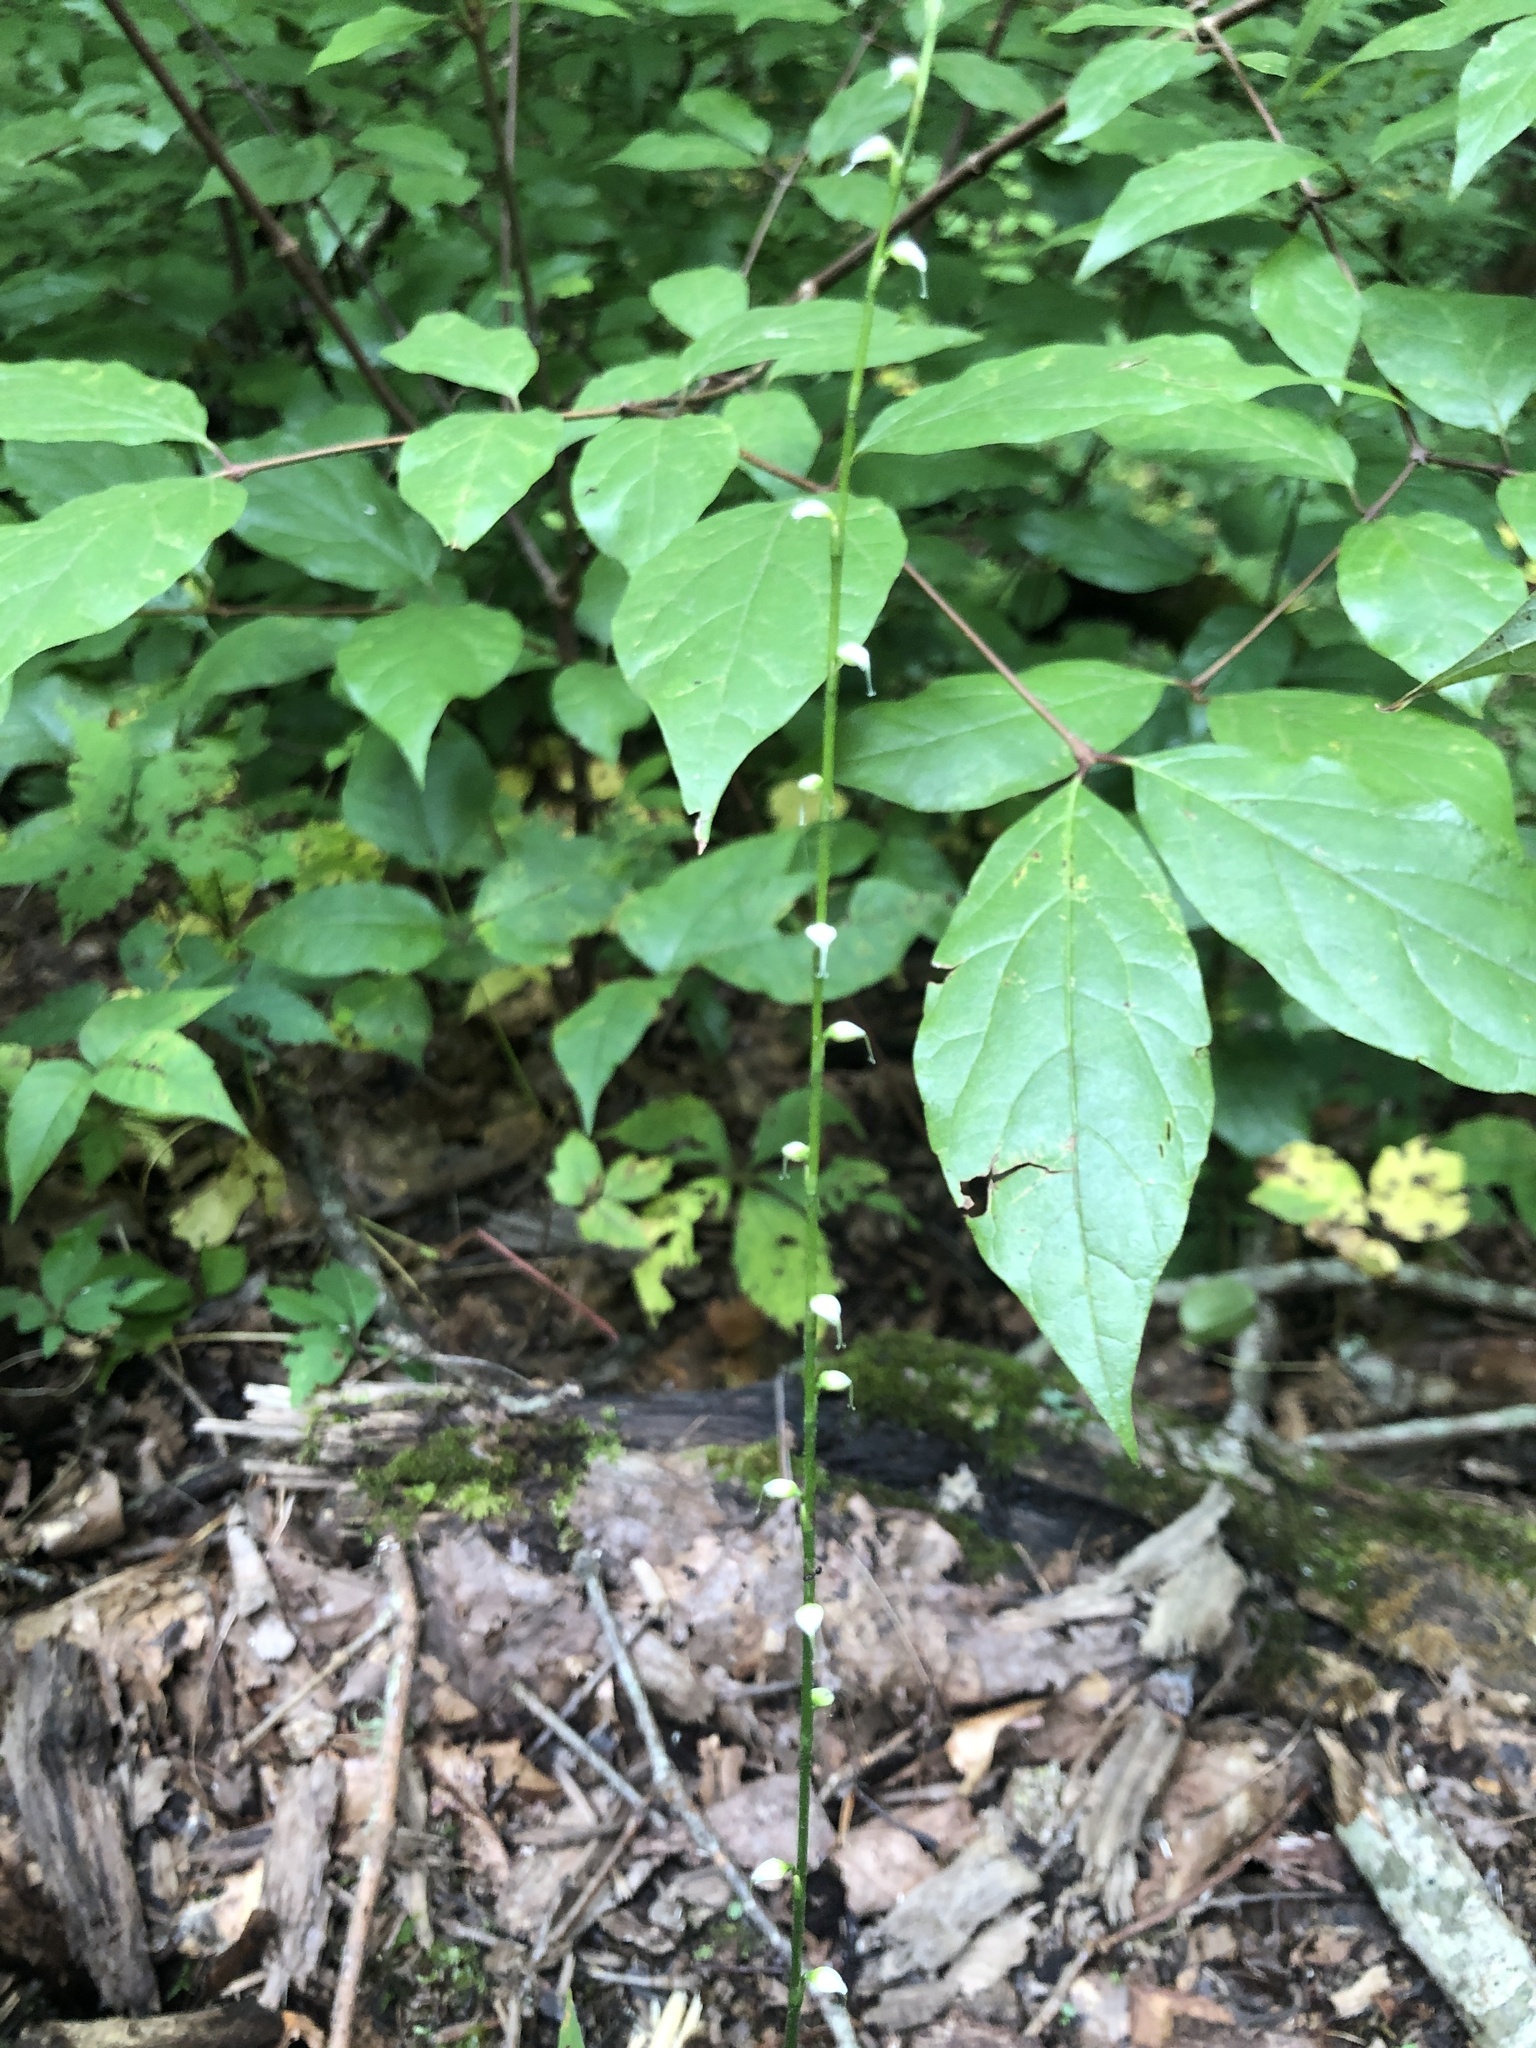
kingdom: Plantae
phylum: Tracheophyta
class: Magnoliopsida
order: Caryophyllales
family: Polygonaceae
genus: Persicaria
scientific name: Persicaria virginiana
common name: Jumpseed
